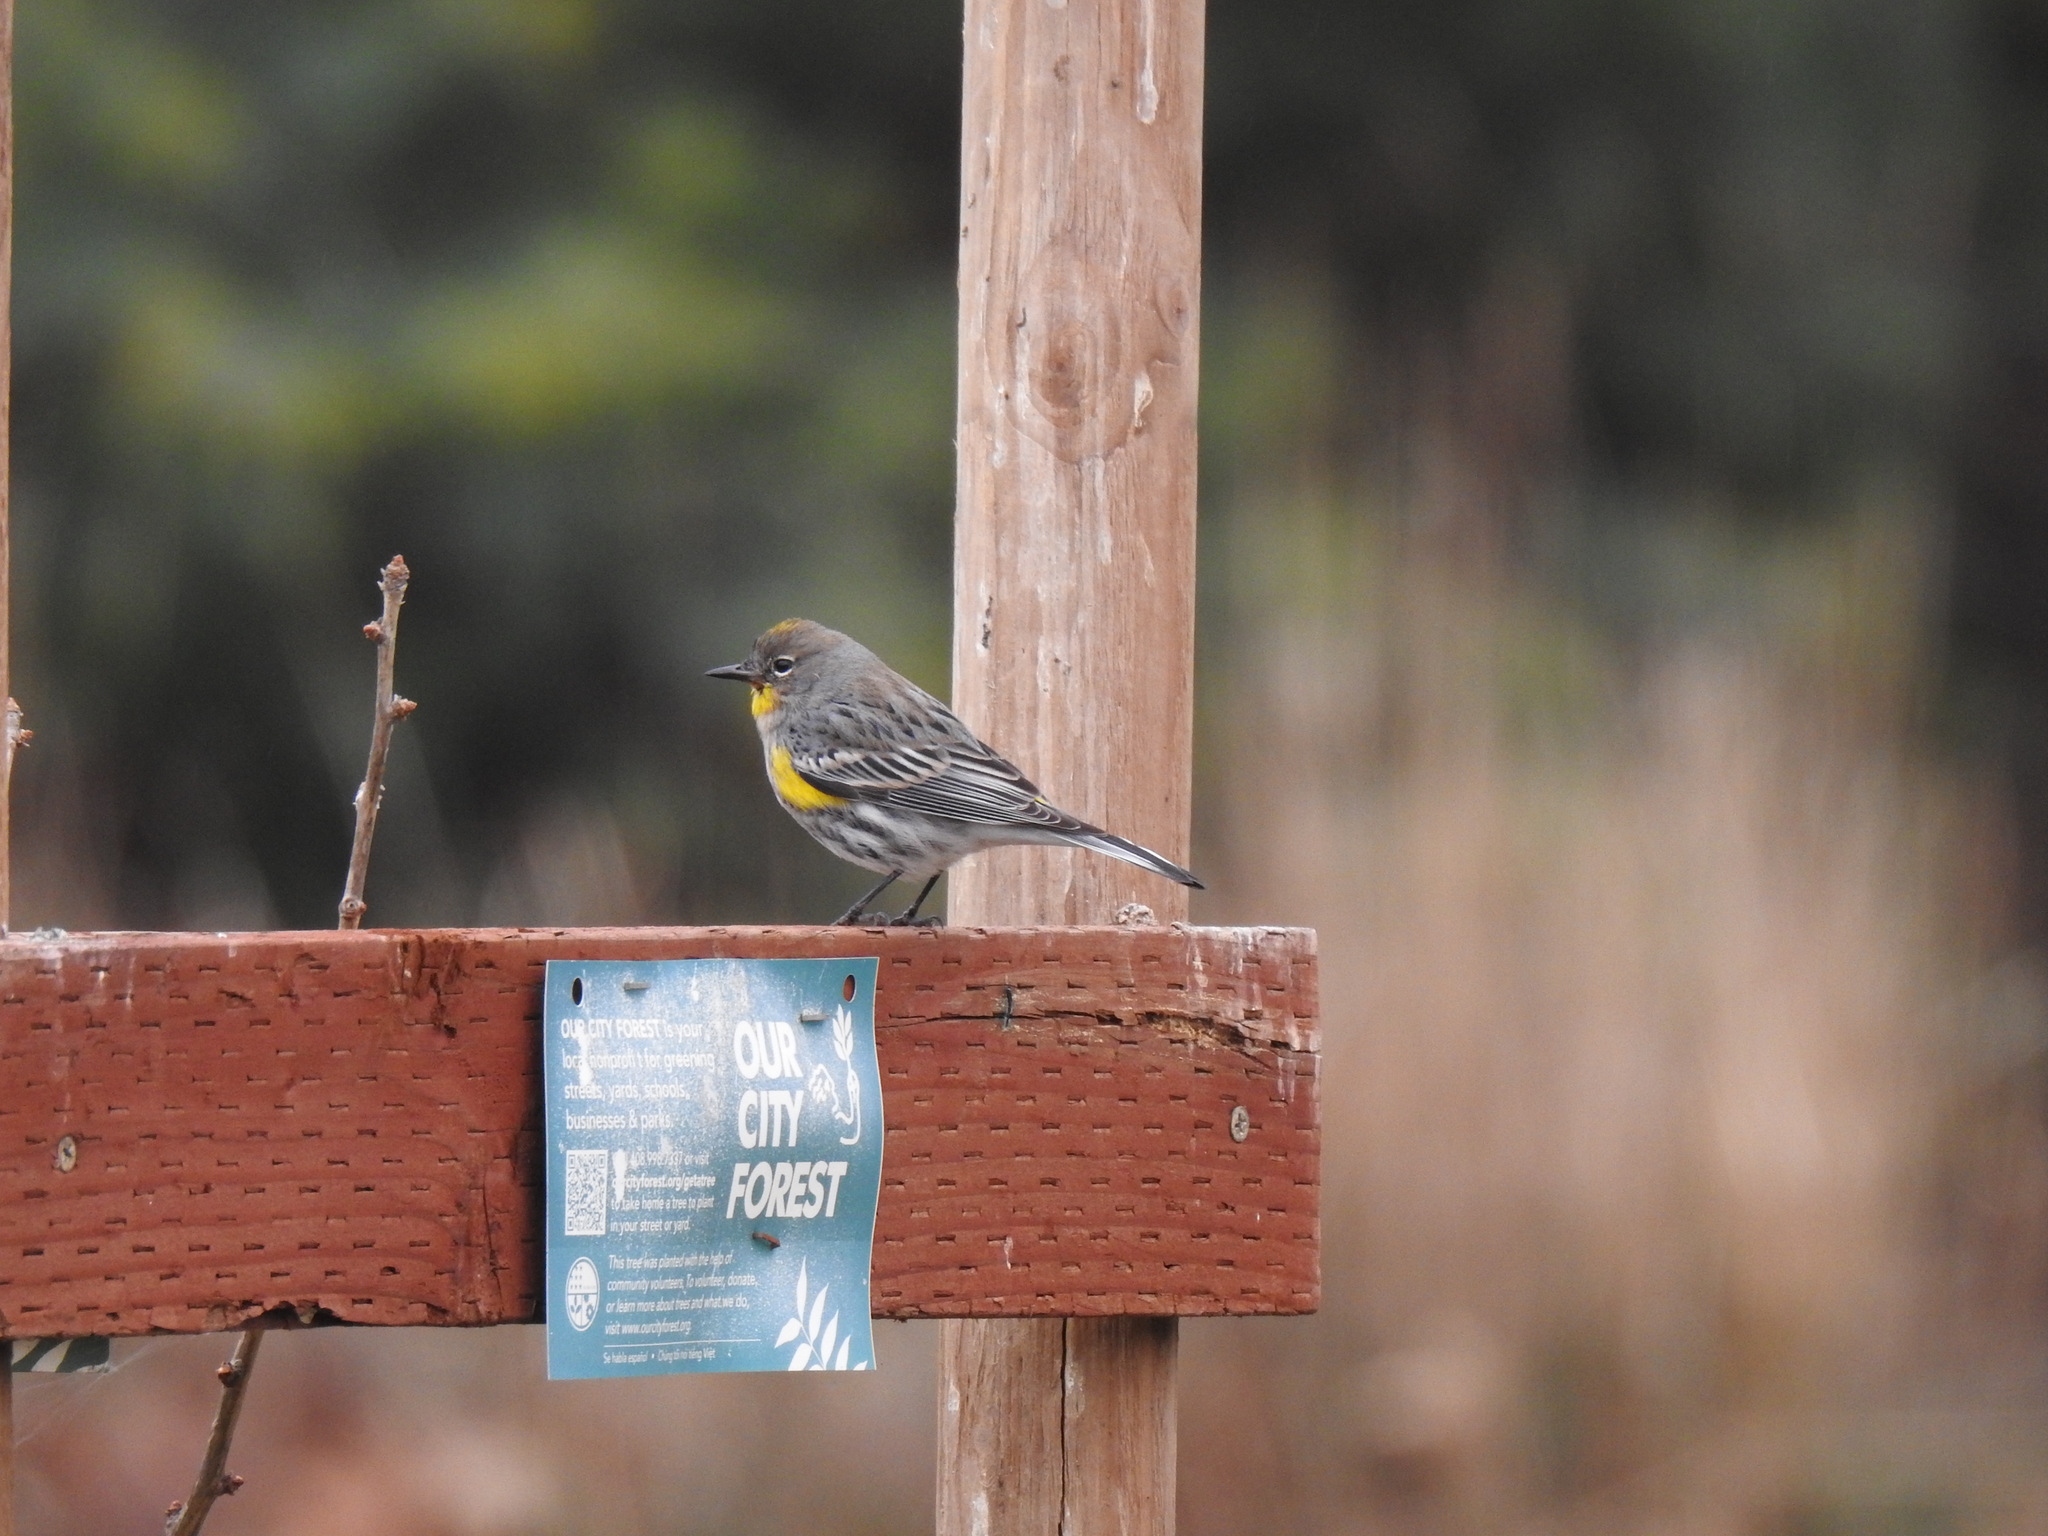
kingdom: Animalia
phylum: Chordata
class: Aves
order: Passeriformes
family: Parulidae
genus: Setophaga
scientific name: Setophaga coronata
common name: Myrtle warbler
